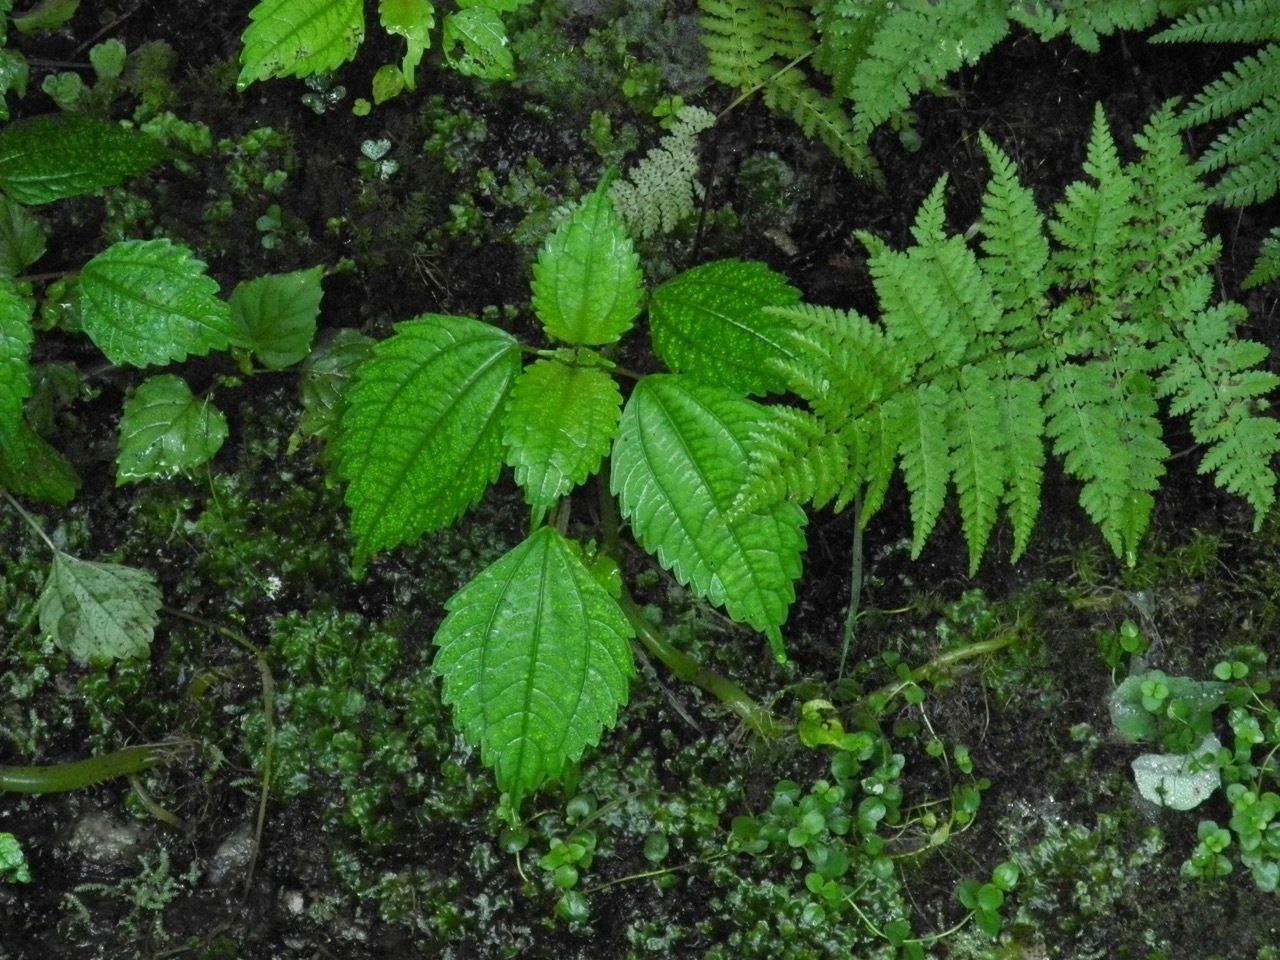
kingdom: Plantae
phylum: Tracheophyta
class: Magnoliopsida
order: Rosales
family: Urticaceae
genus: Pilea
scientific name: Pilea pumila
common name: Clearweed
